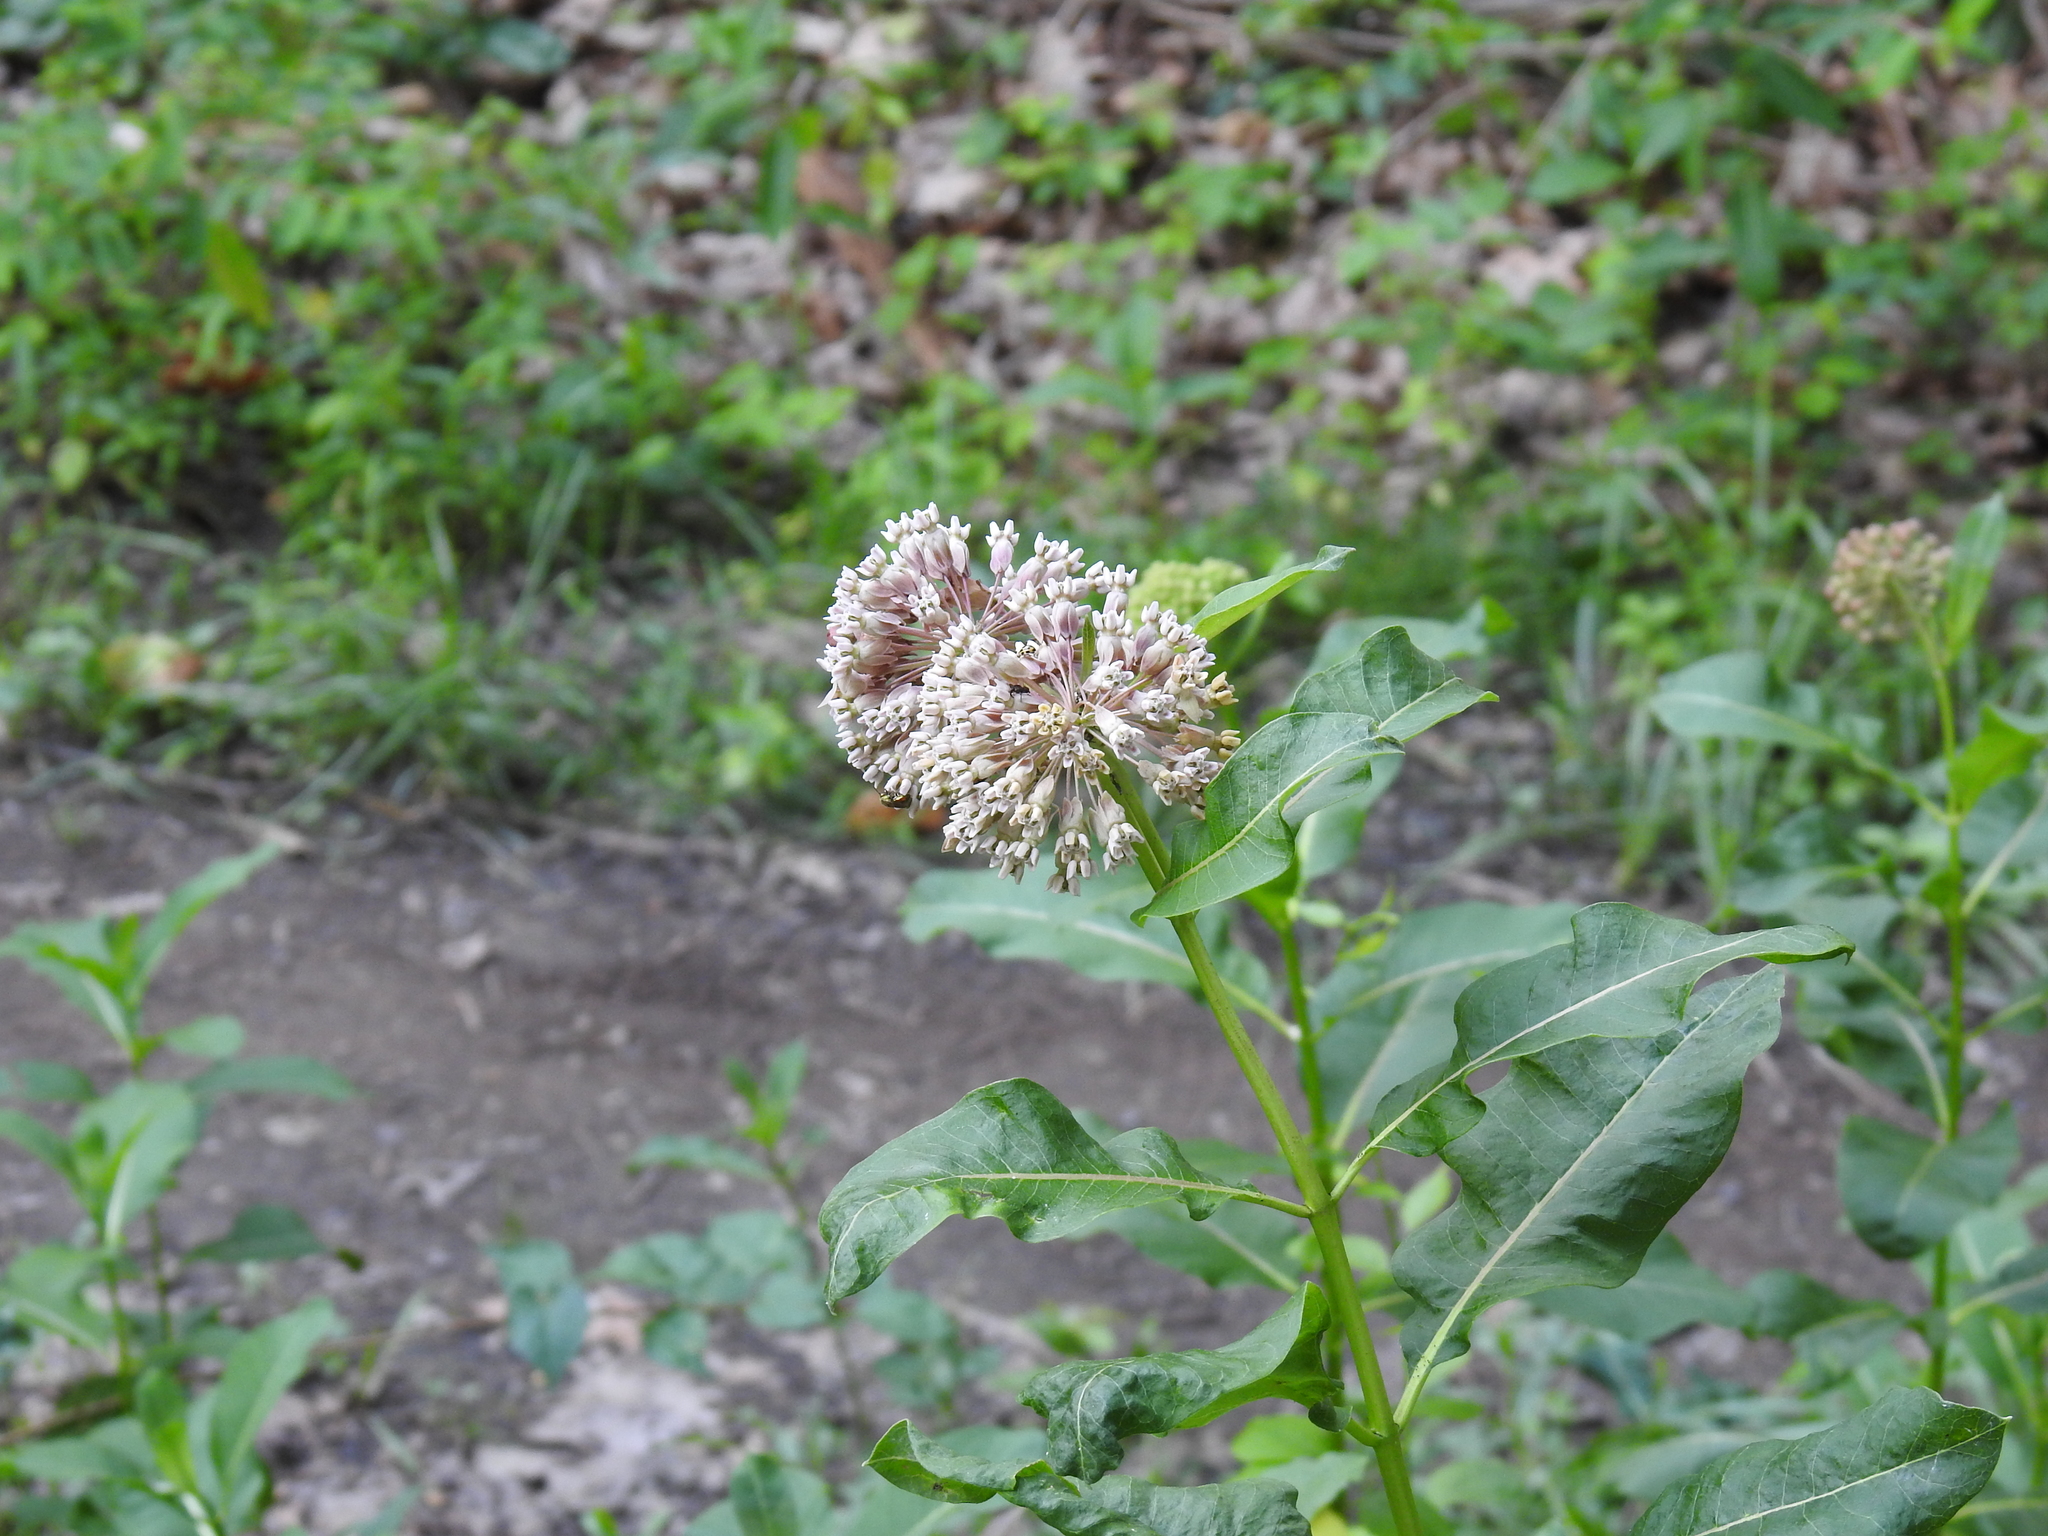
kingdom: Plantae
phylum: Tracheophyta
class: Magnoliopsida
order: Gentianales
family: Apocynaceae
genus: Asclepias
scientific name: Asclepias syriaca
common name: Common milkweed
